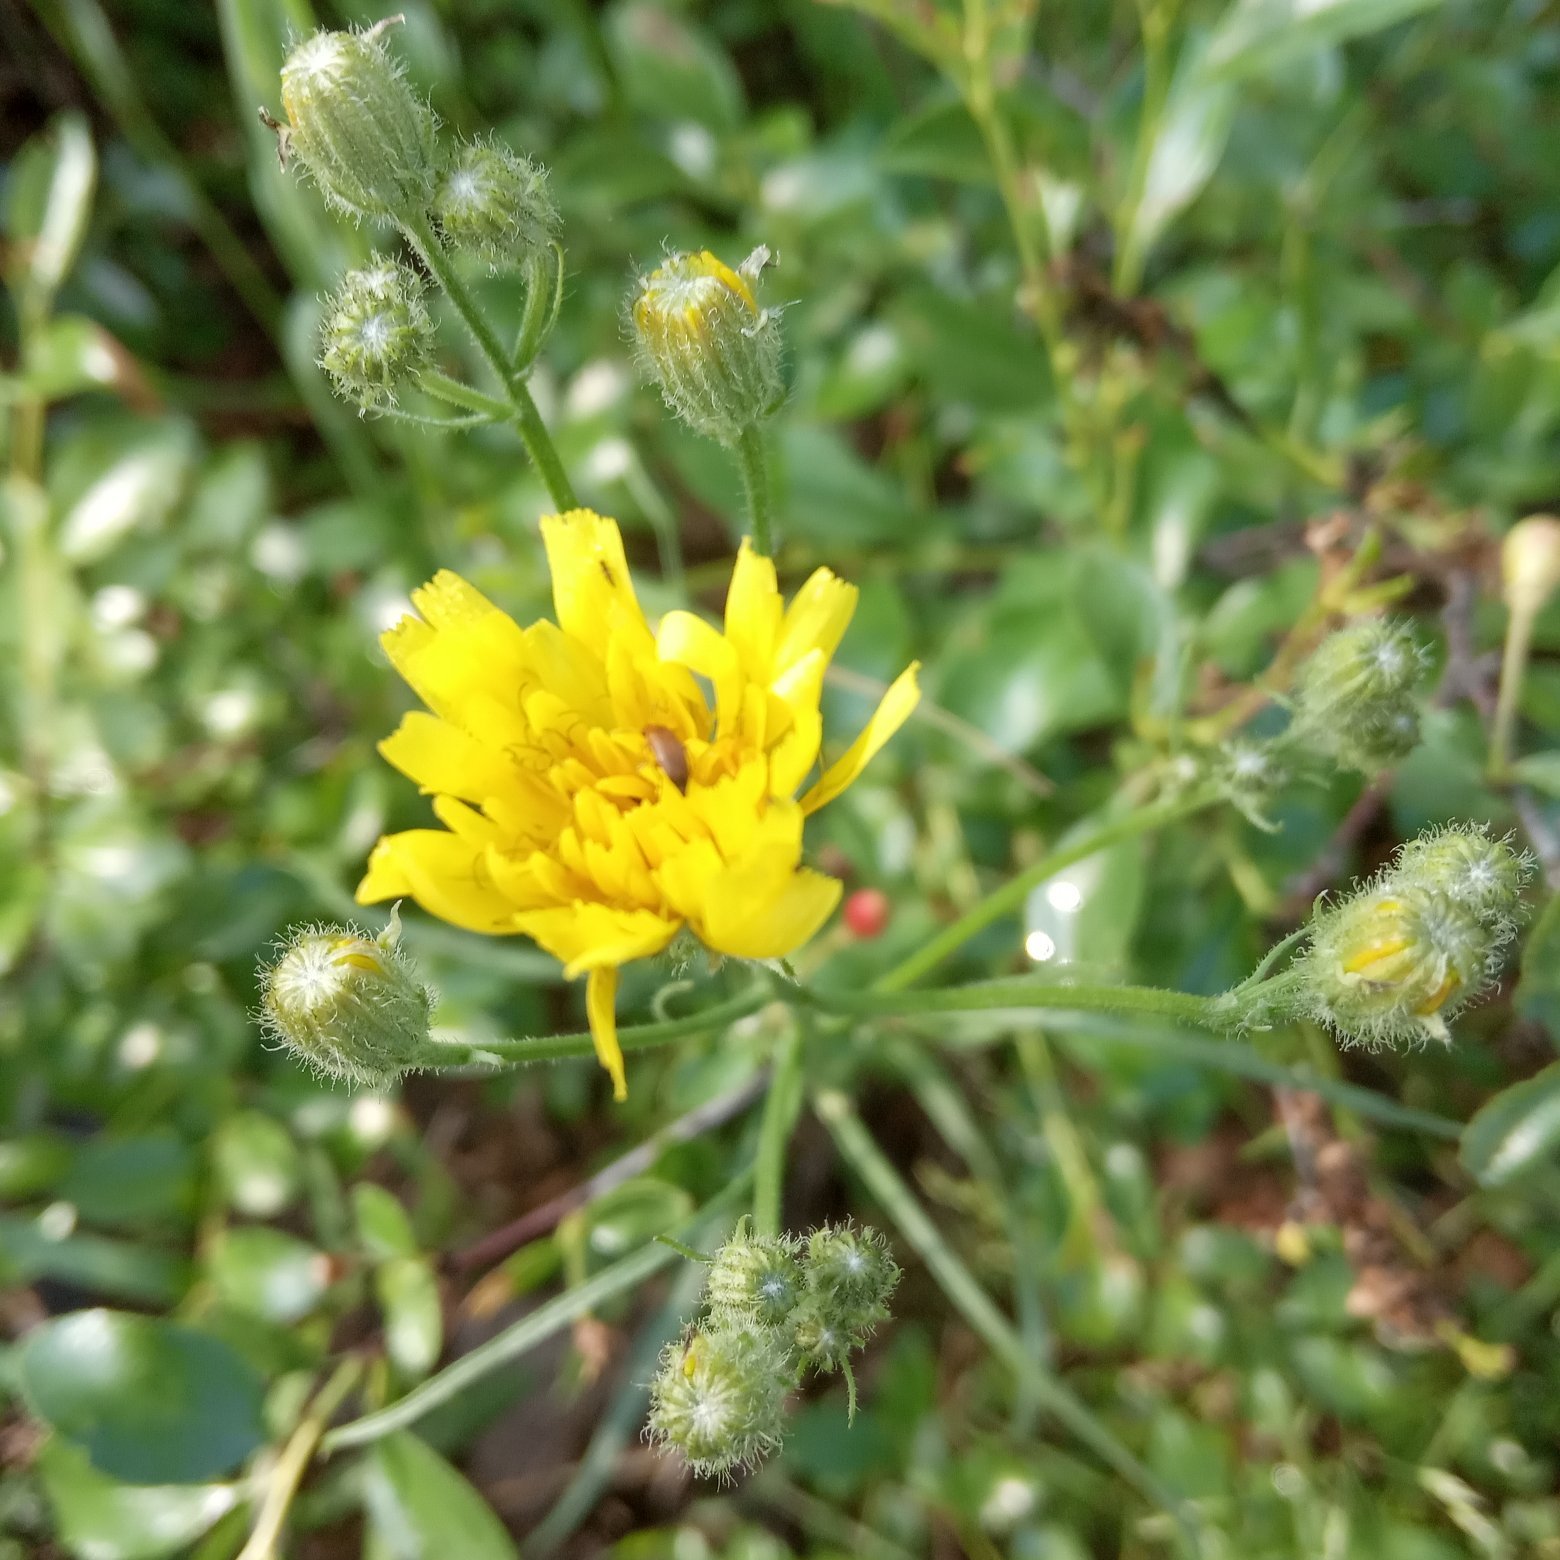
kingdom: Plantae
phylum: Tracheophyta
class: Magnoliopsida
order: Asterales
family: Asteraceae
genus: Crepis
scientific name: Crepis tectorum
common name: Narrow-leaved hawk's-beard
